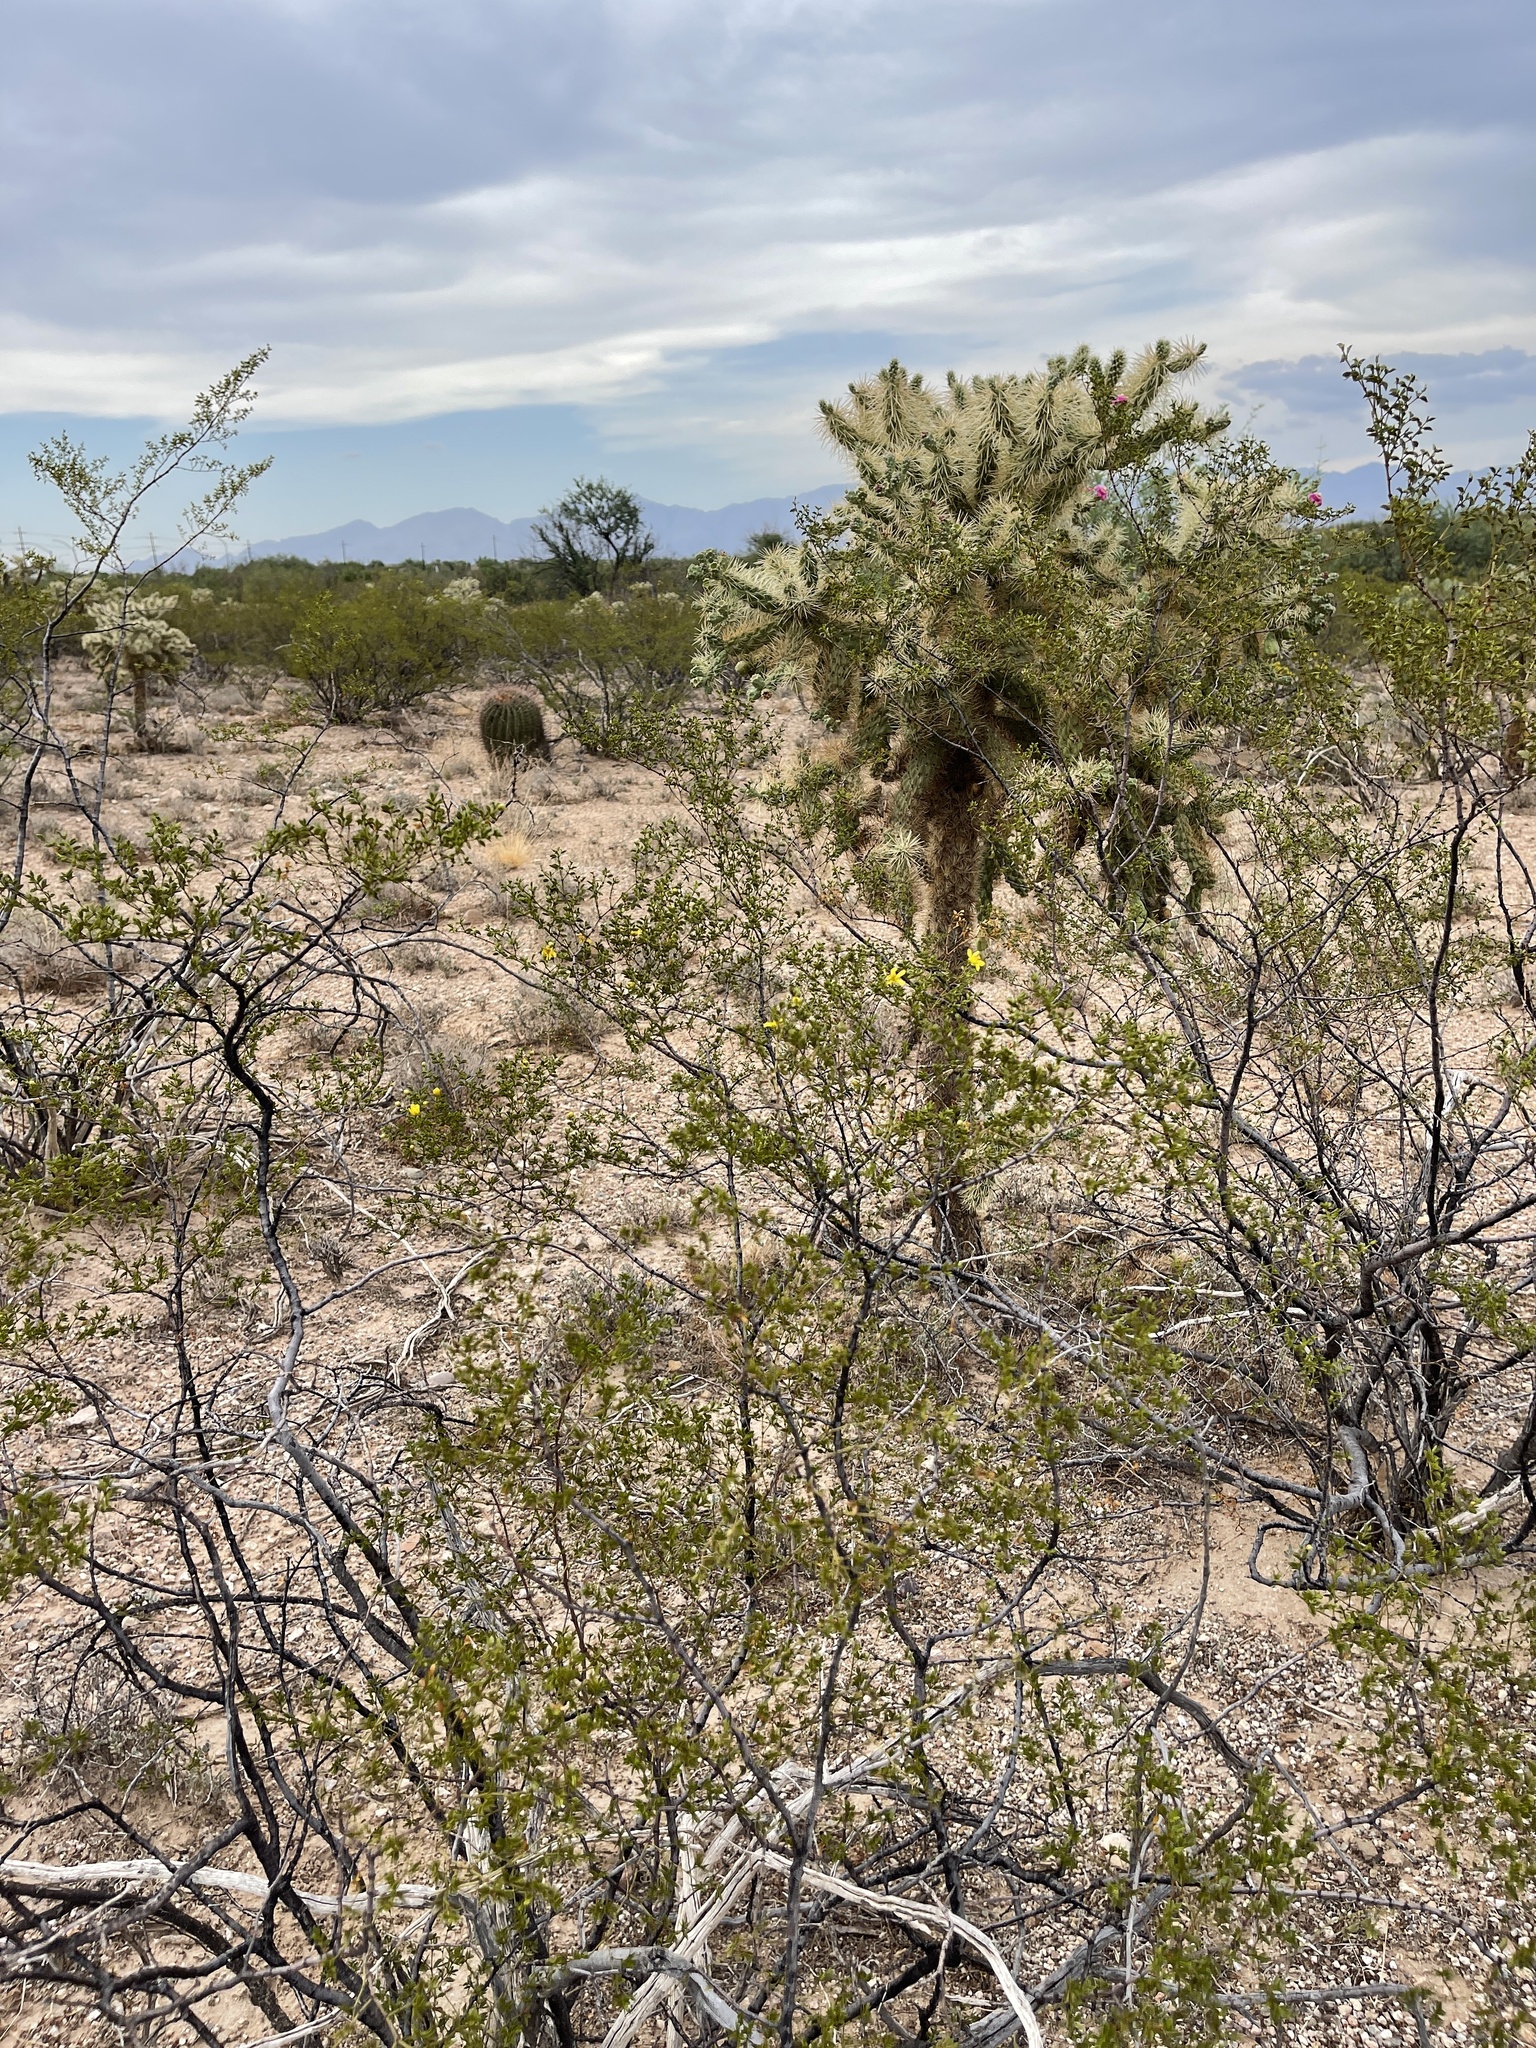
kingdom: Plantae
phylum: Tracheophyta
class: Magnoliopsida
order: Zygophyllales
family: Zygophyllaceae
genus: Larrea
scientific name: Larrea tridentata
